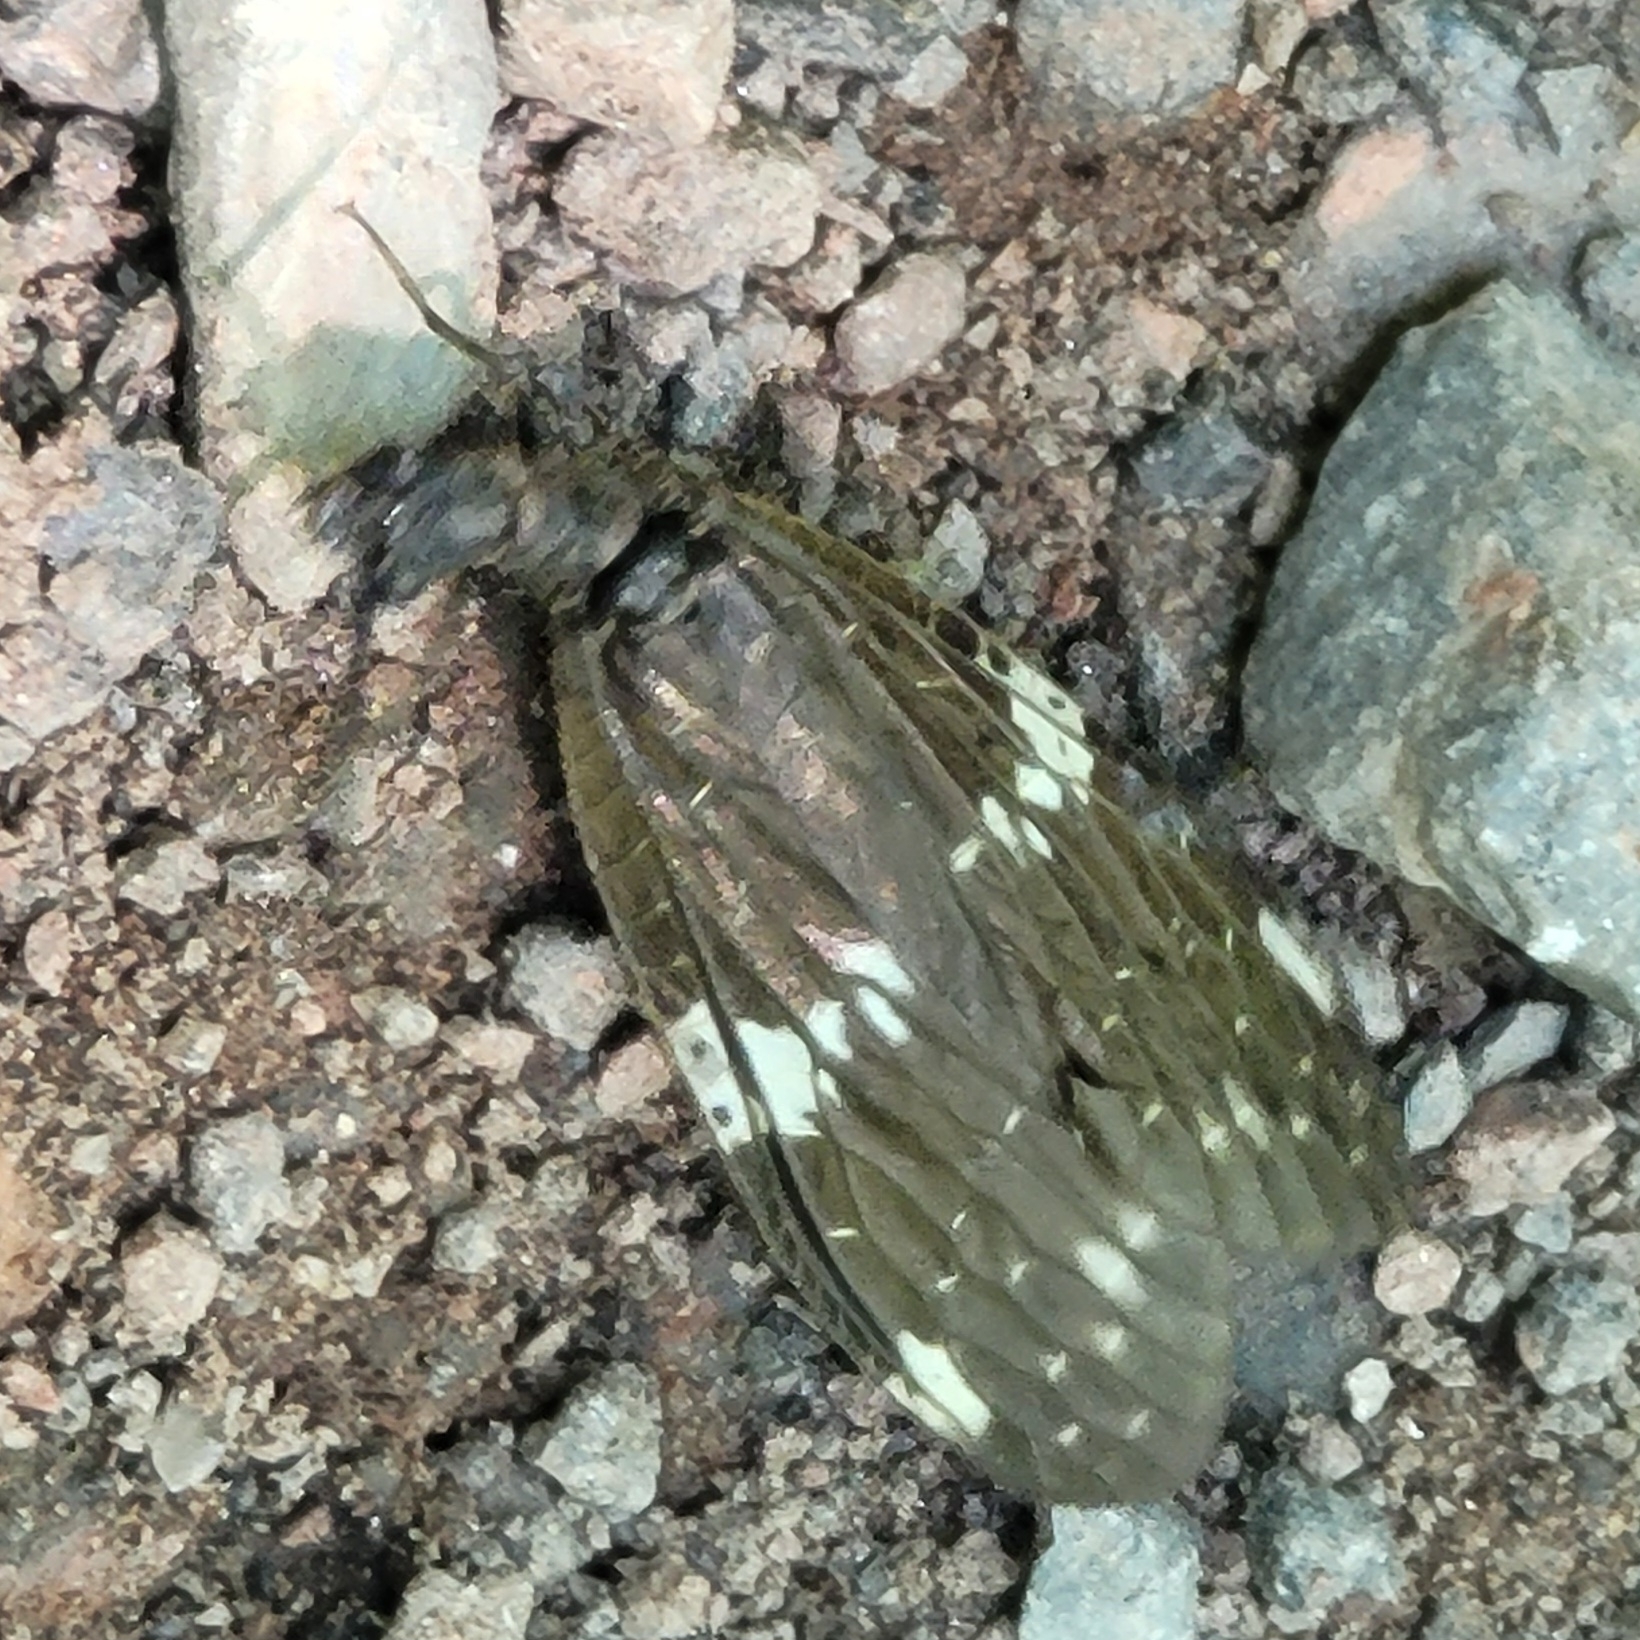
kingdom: Animalia
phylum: Arthropoda
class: Insecta
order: Megaloptera
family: Corydalidae
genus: Nigronia
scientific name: Nigronia serricornis
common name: Serrate dark fishfly
